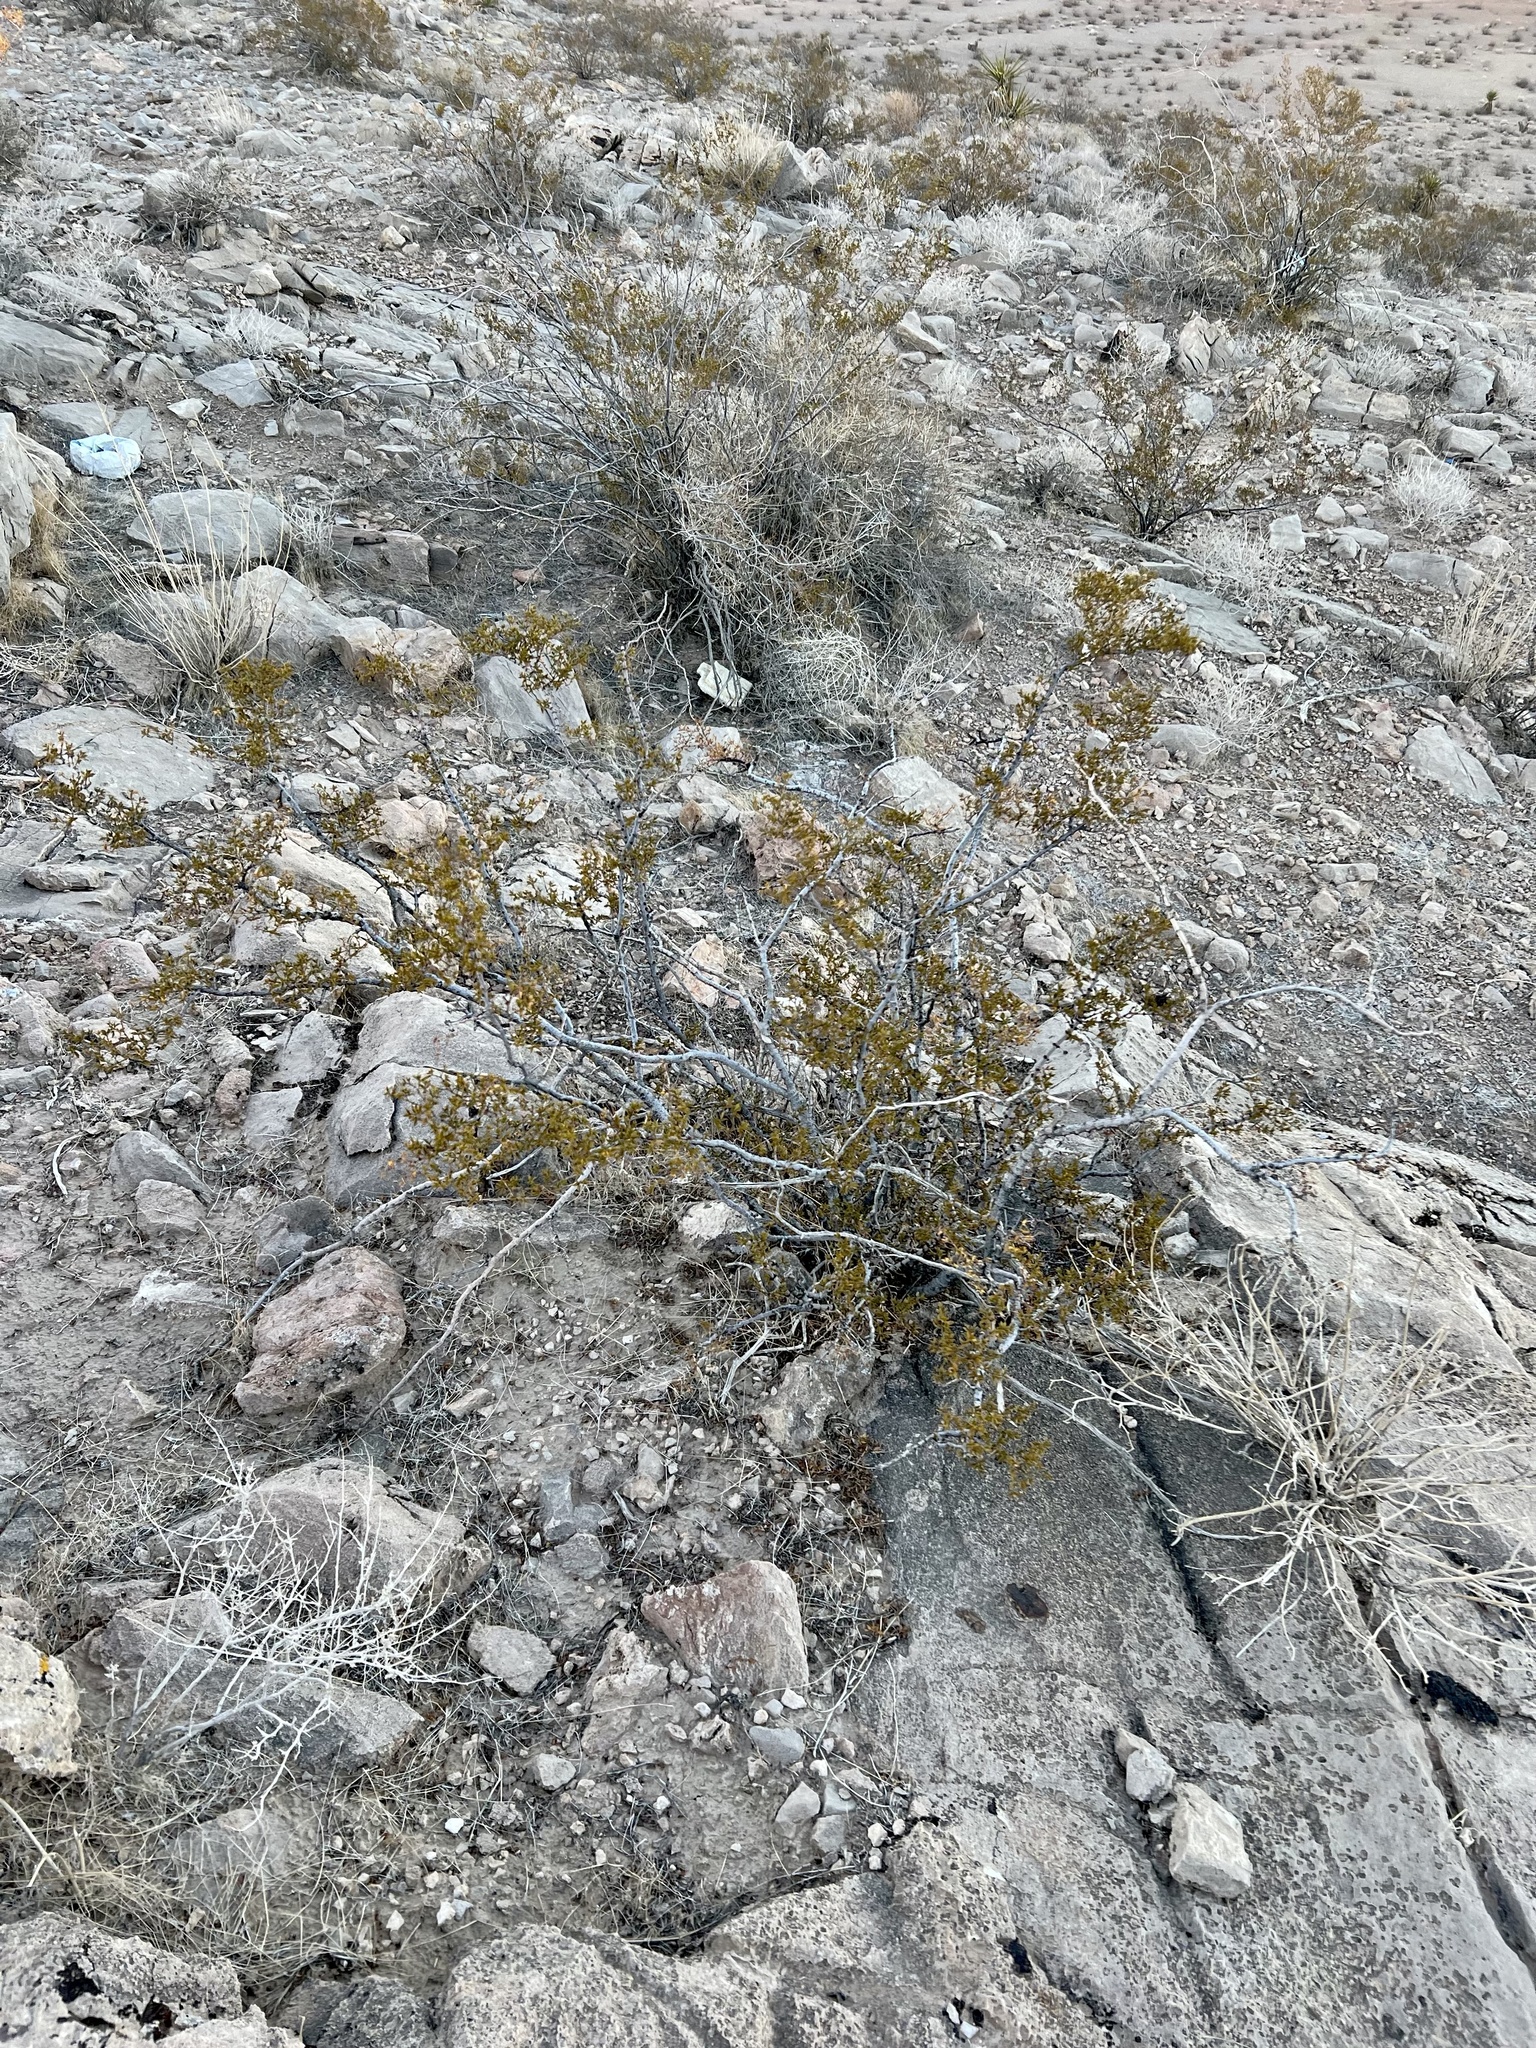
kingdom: Plantae
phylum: Tracheophyta
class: Magnoliopsida
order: Zygophyllales
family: Zygophyllaceae
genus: Larrea
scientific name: Larrea tridentata
